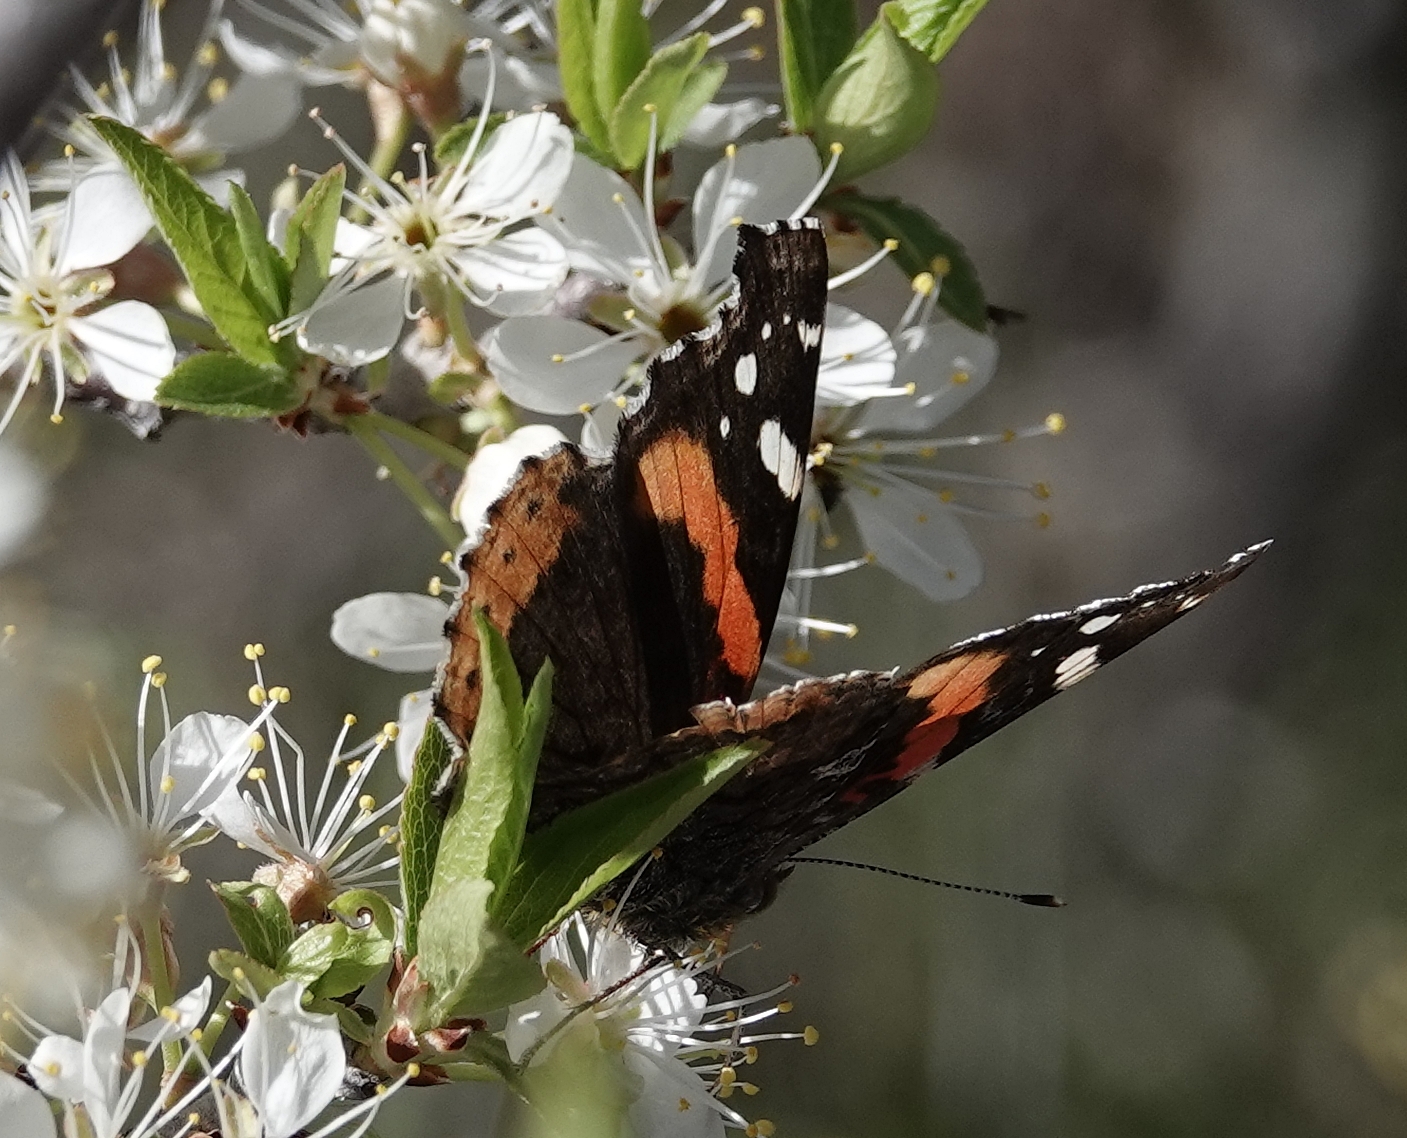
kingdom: Animalia
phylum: Arthropoda
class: Insecta
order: Lepidoptera
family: Nymphalidae
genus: Vanessa
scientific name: Vanessa atalanta
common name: Red admiral
